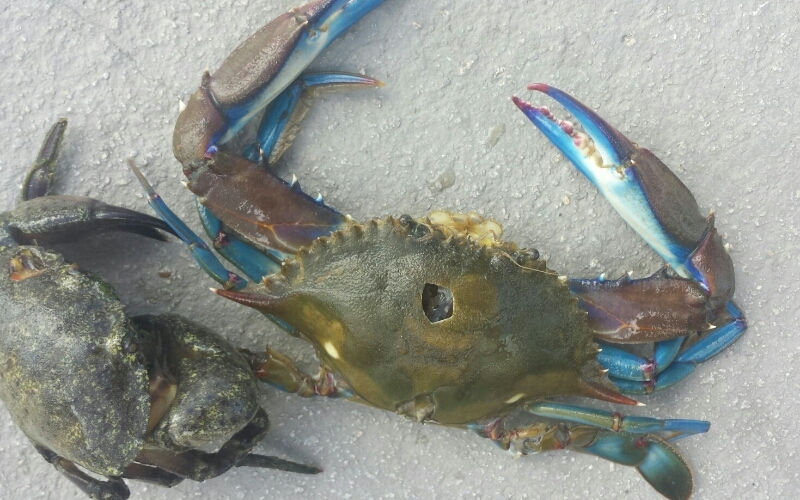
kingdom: Animalia
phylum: Arthropoda
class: Malacostraca
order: Decapoda
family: Portunidae
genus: Callinectes
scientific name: Callinectes sapidus
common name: Blue crab
